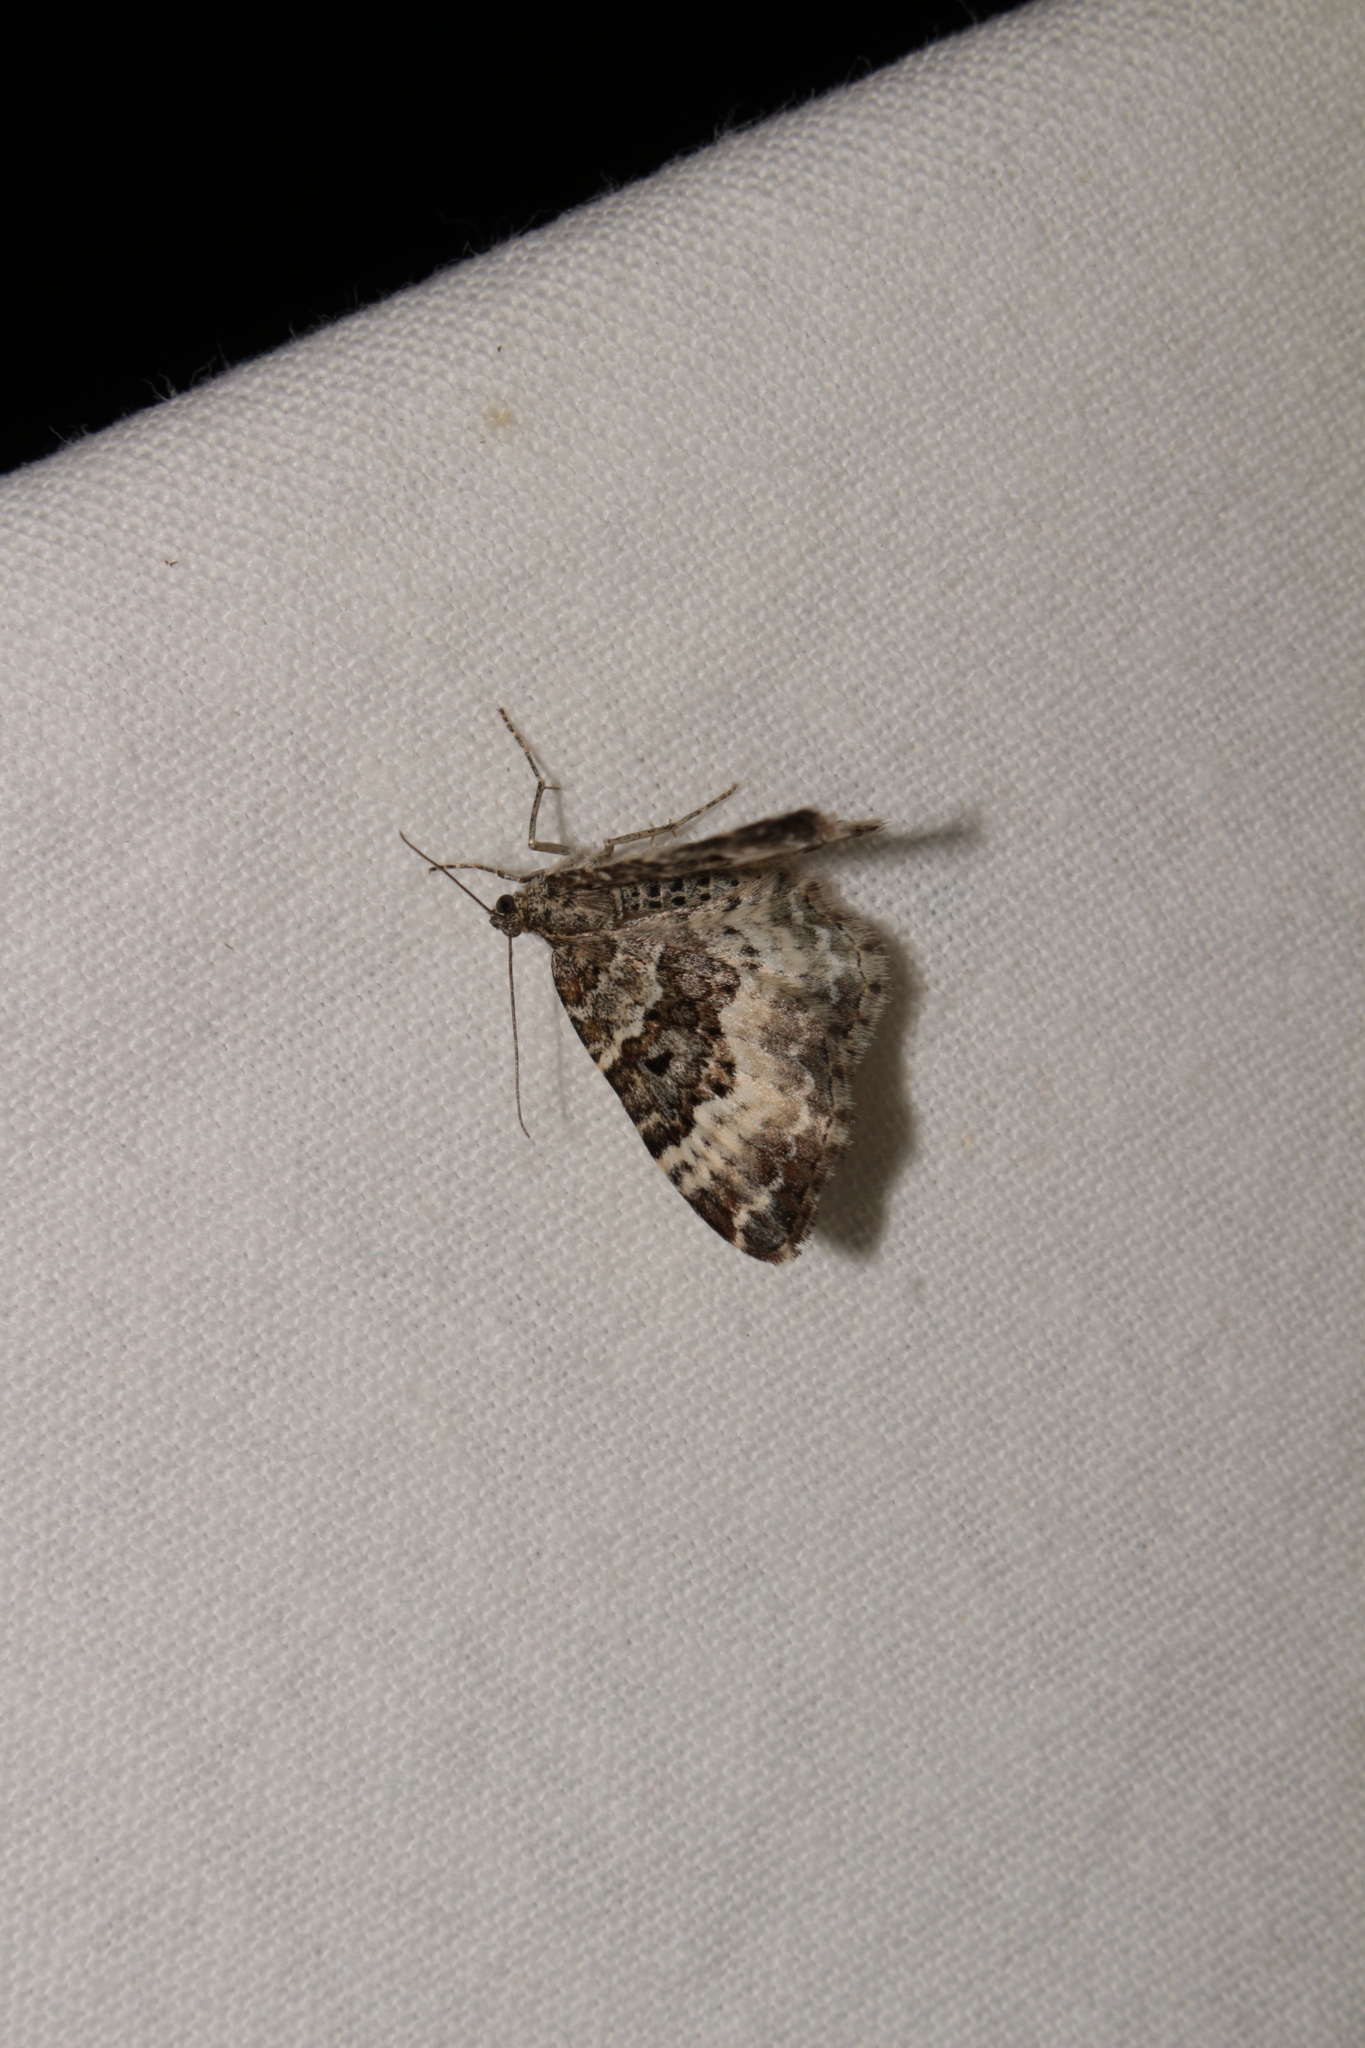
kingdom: Animalia
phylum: Arthropoda
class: Insecta
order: Lepidoptera
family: Geometridae
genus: Epirrhoe
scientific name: Epirrhoe alternata
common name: Common carpet
